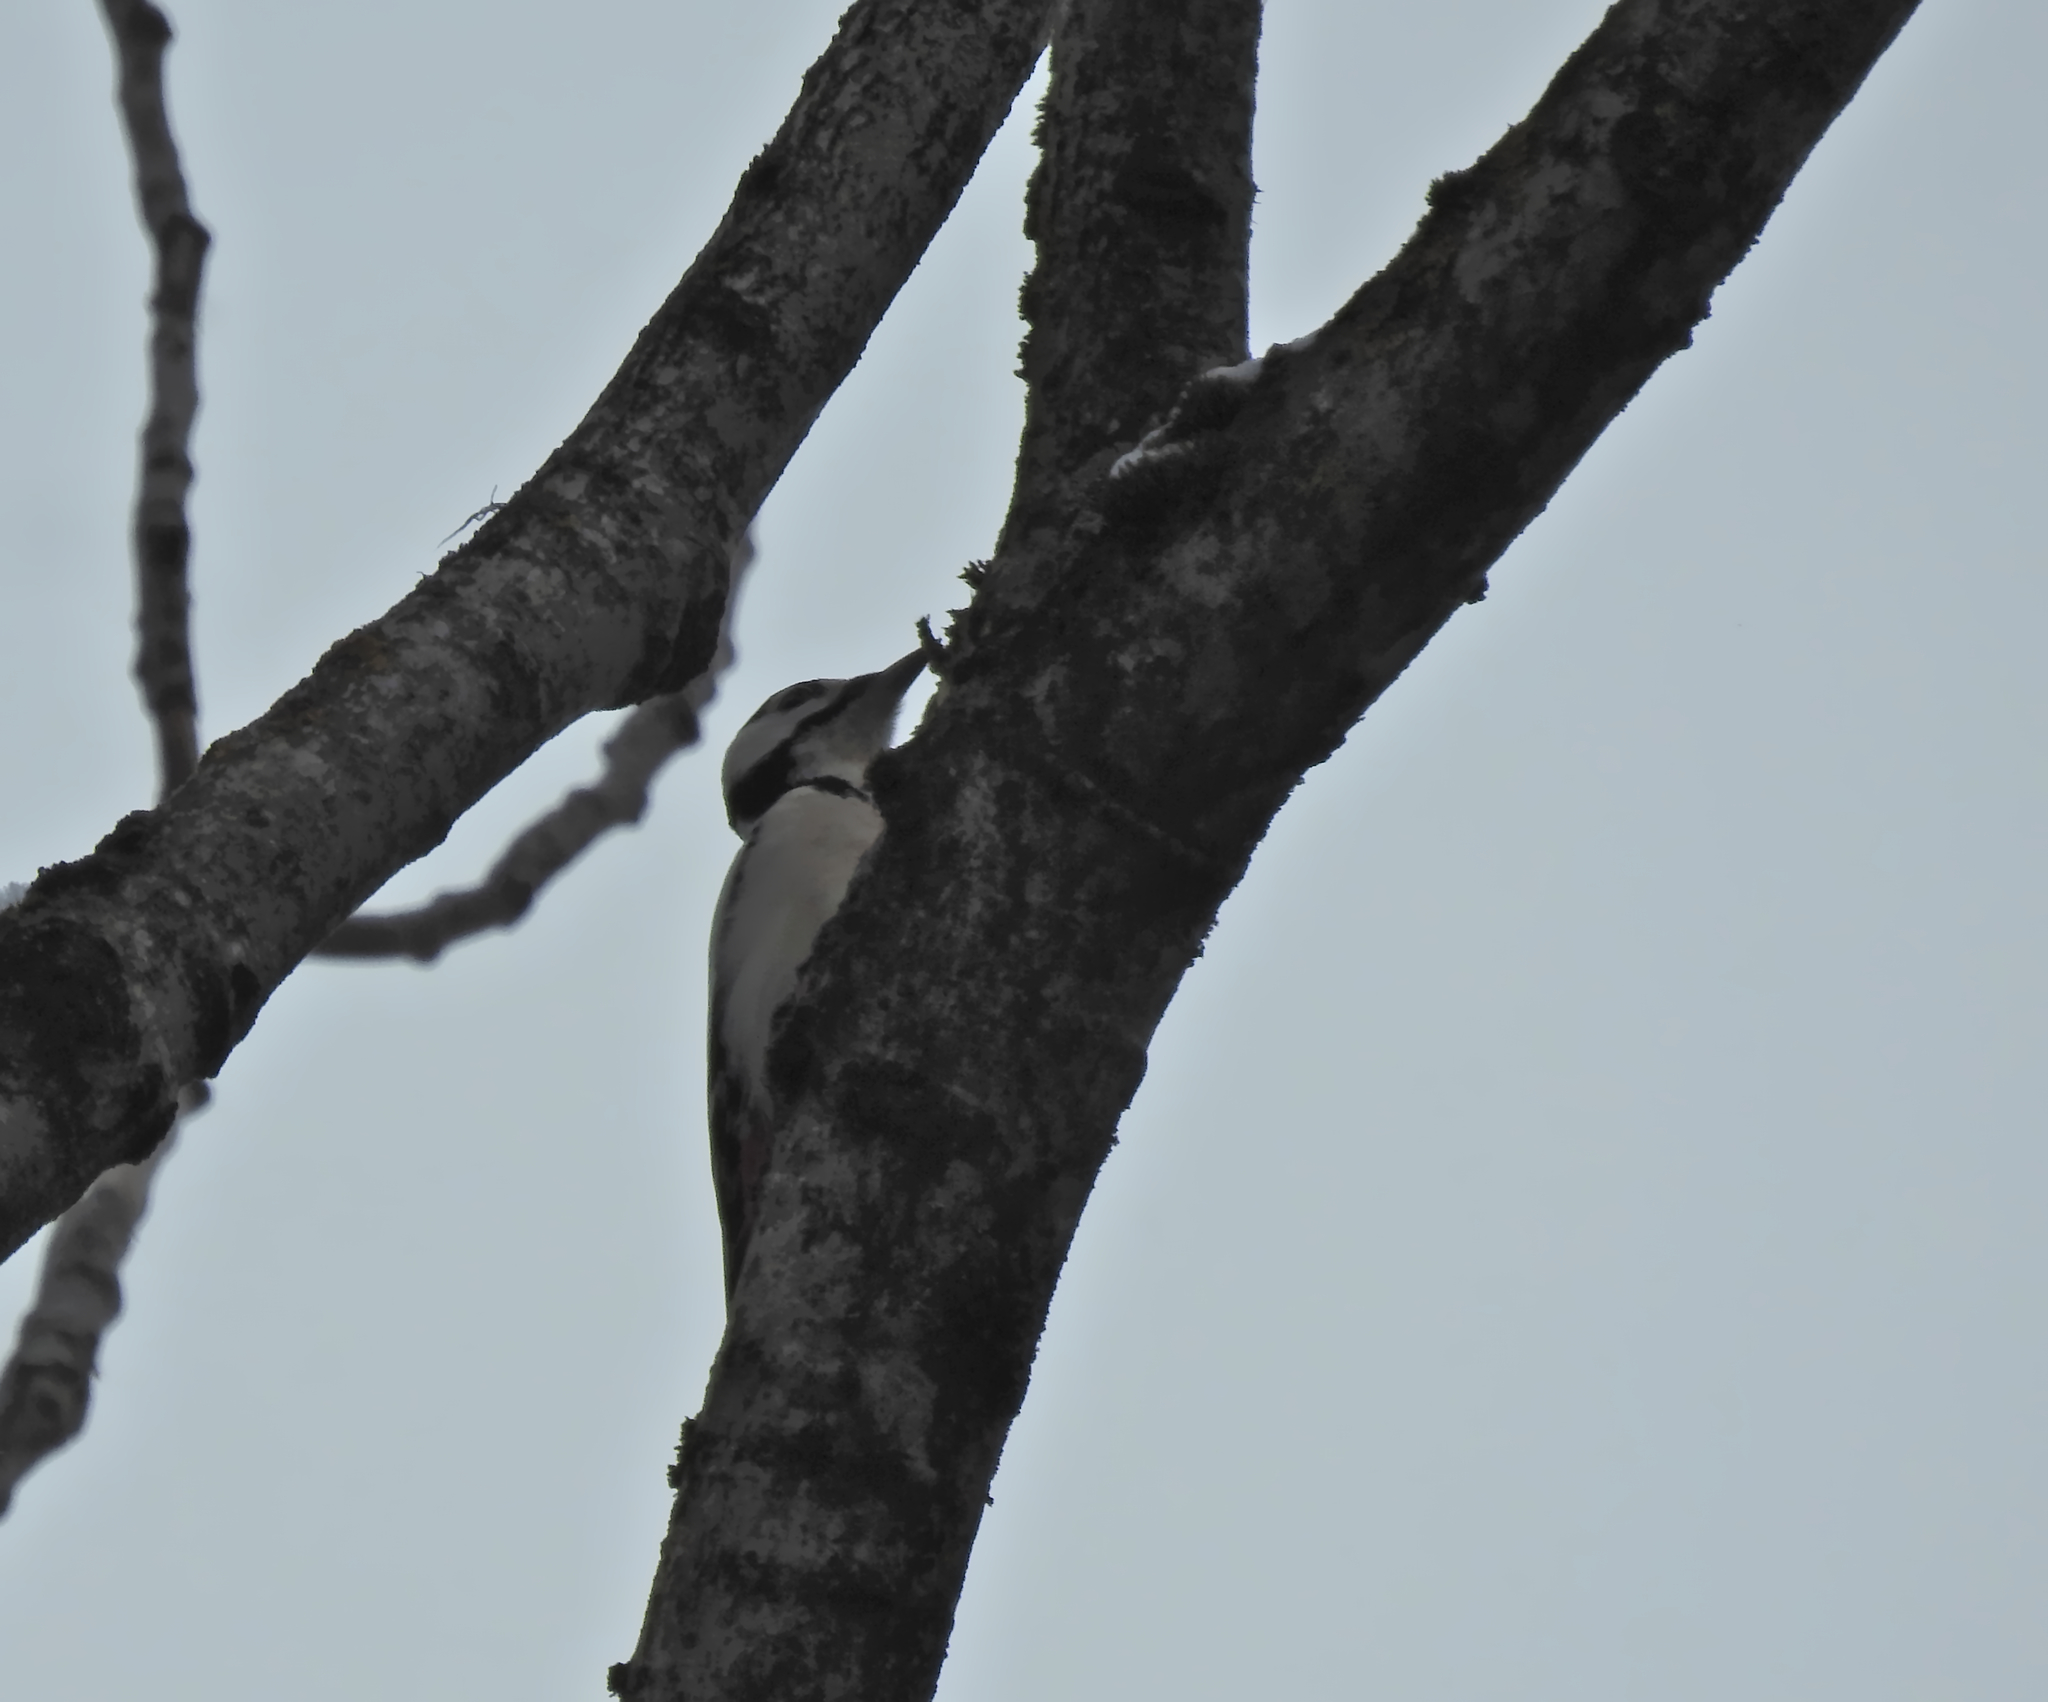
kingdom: Animalia
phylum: Chordata
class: Aves
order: Piciformes
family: Picidae
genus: Dendrocopos
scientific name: Dendrocopos major
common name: Great spotted woodpecker
